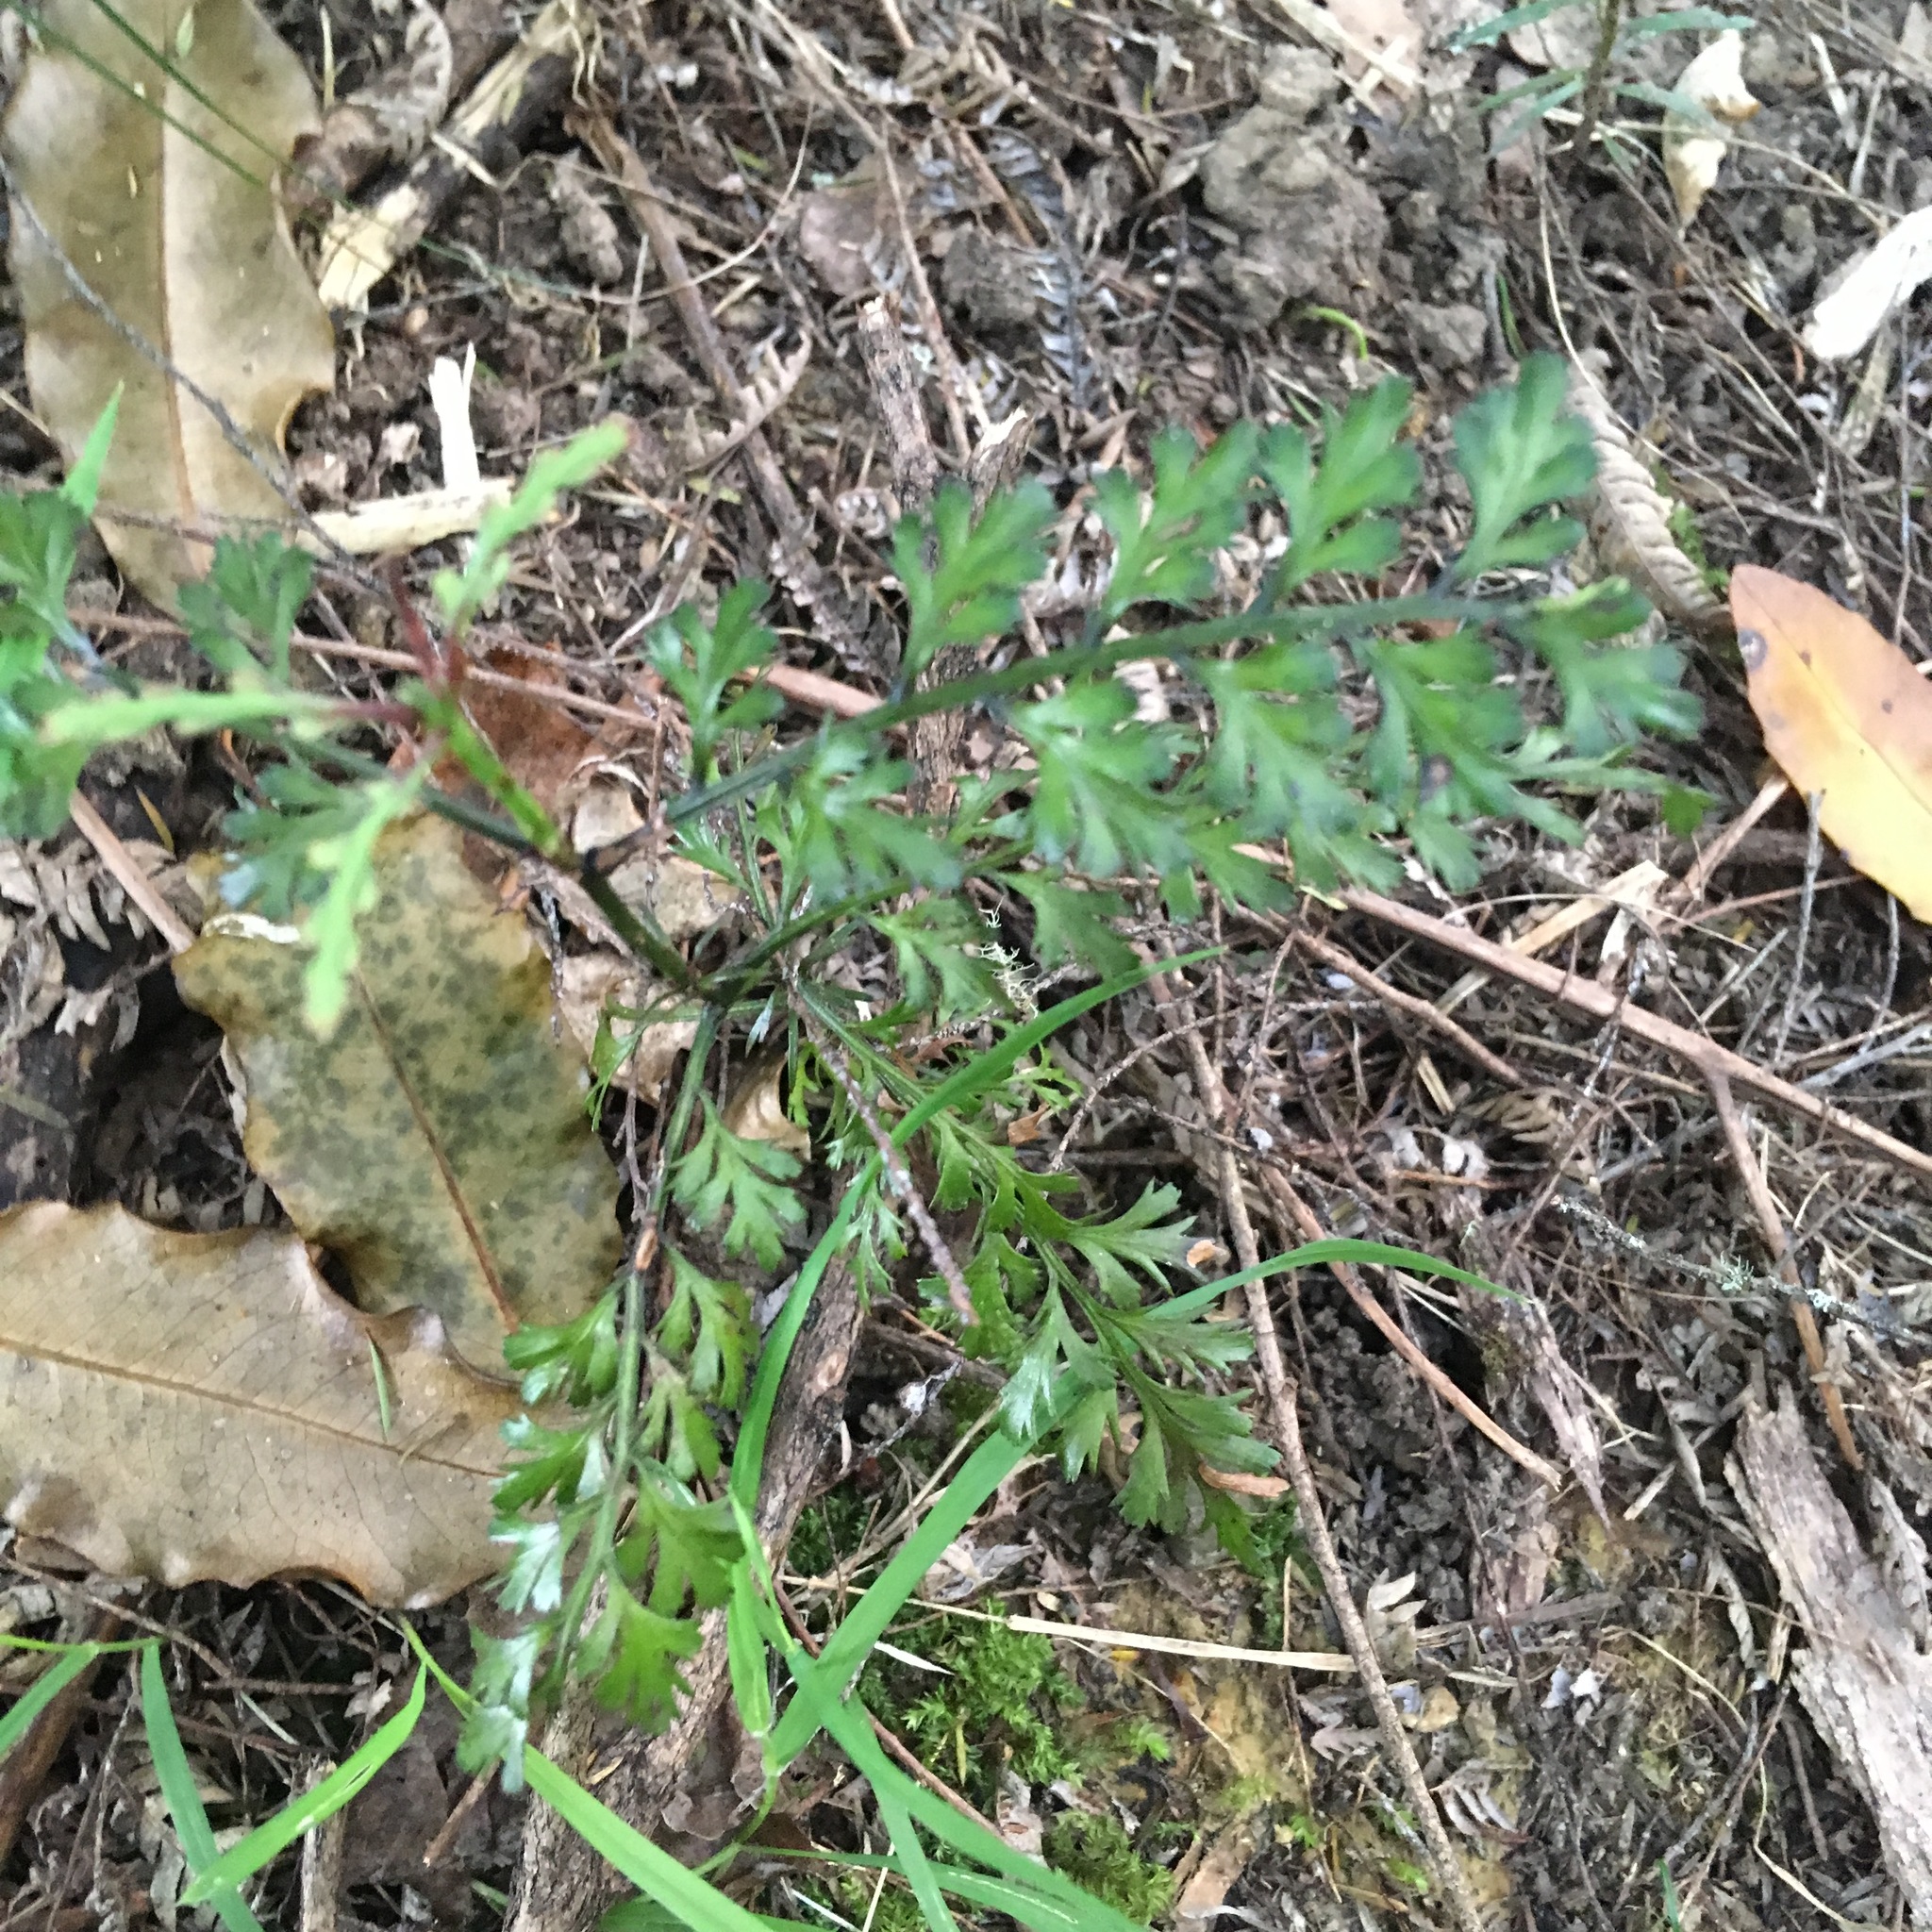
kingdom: Plantae
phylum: Tracheophyta
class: Pinopsida
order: Pinales
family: Phyllocladaceae
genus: Phyllocladus
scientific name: Phyllocladus trichomanoides
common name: Celery pine
